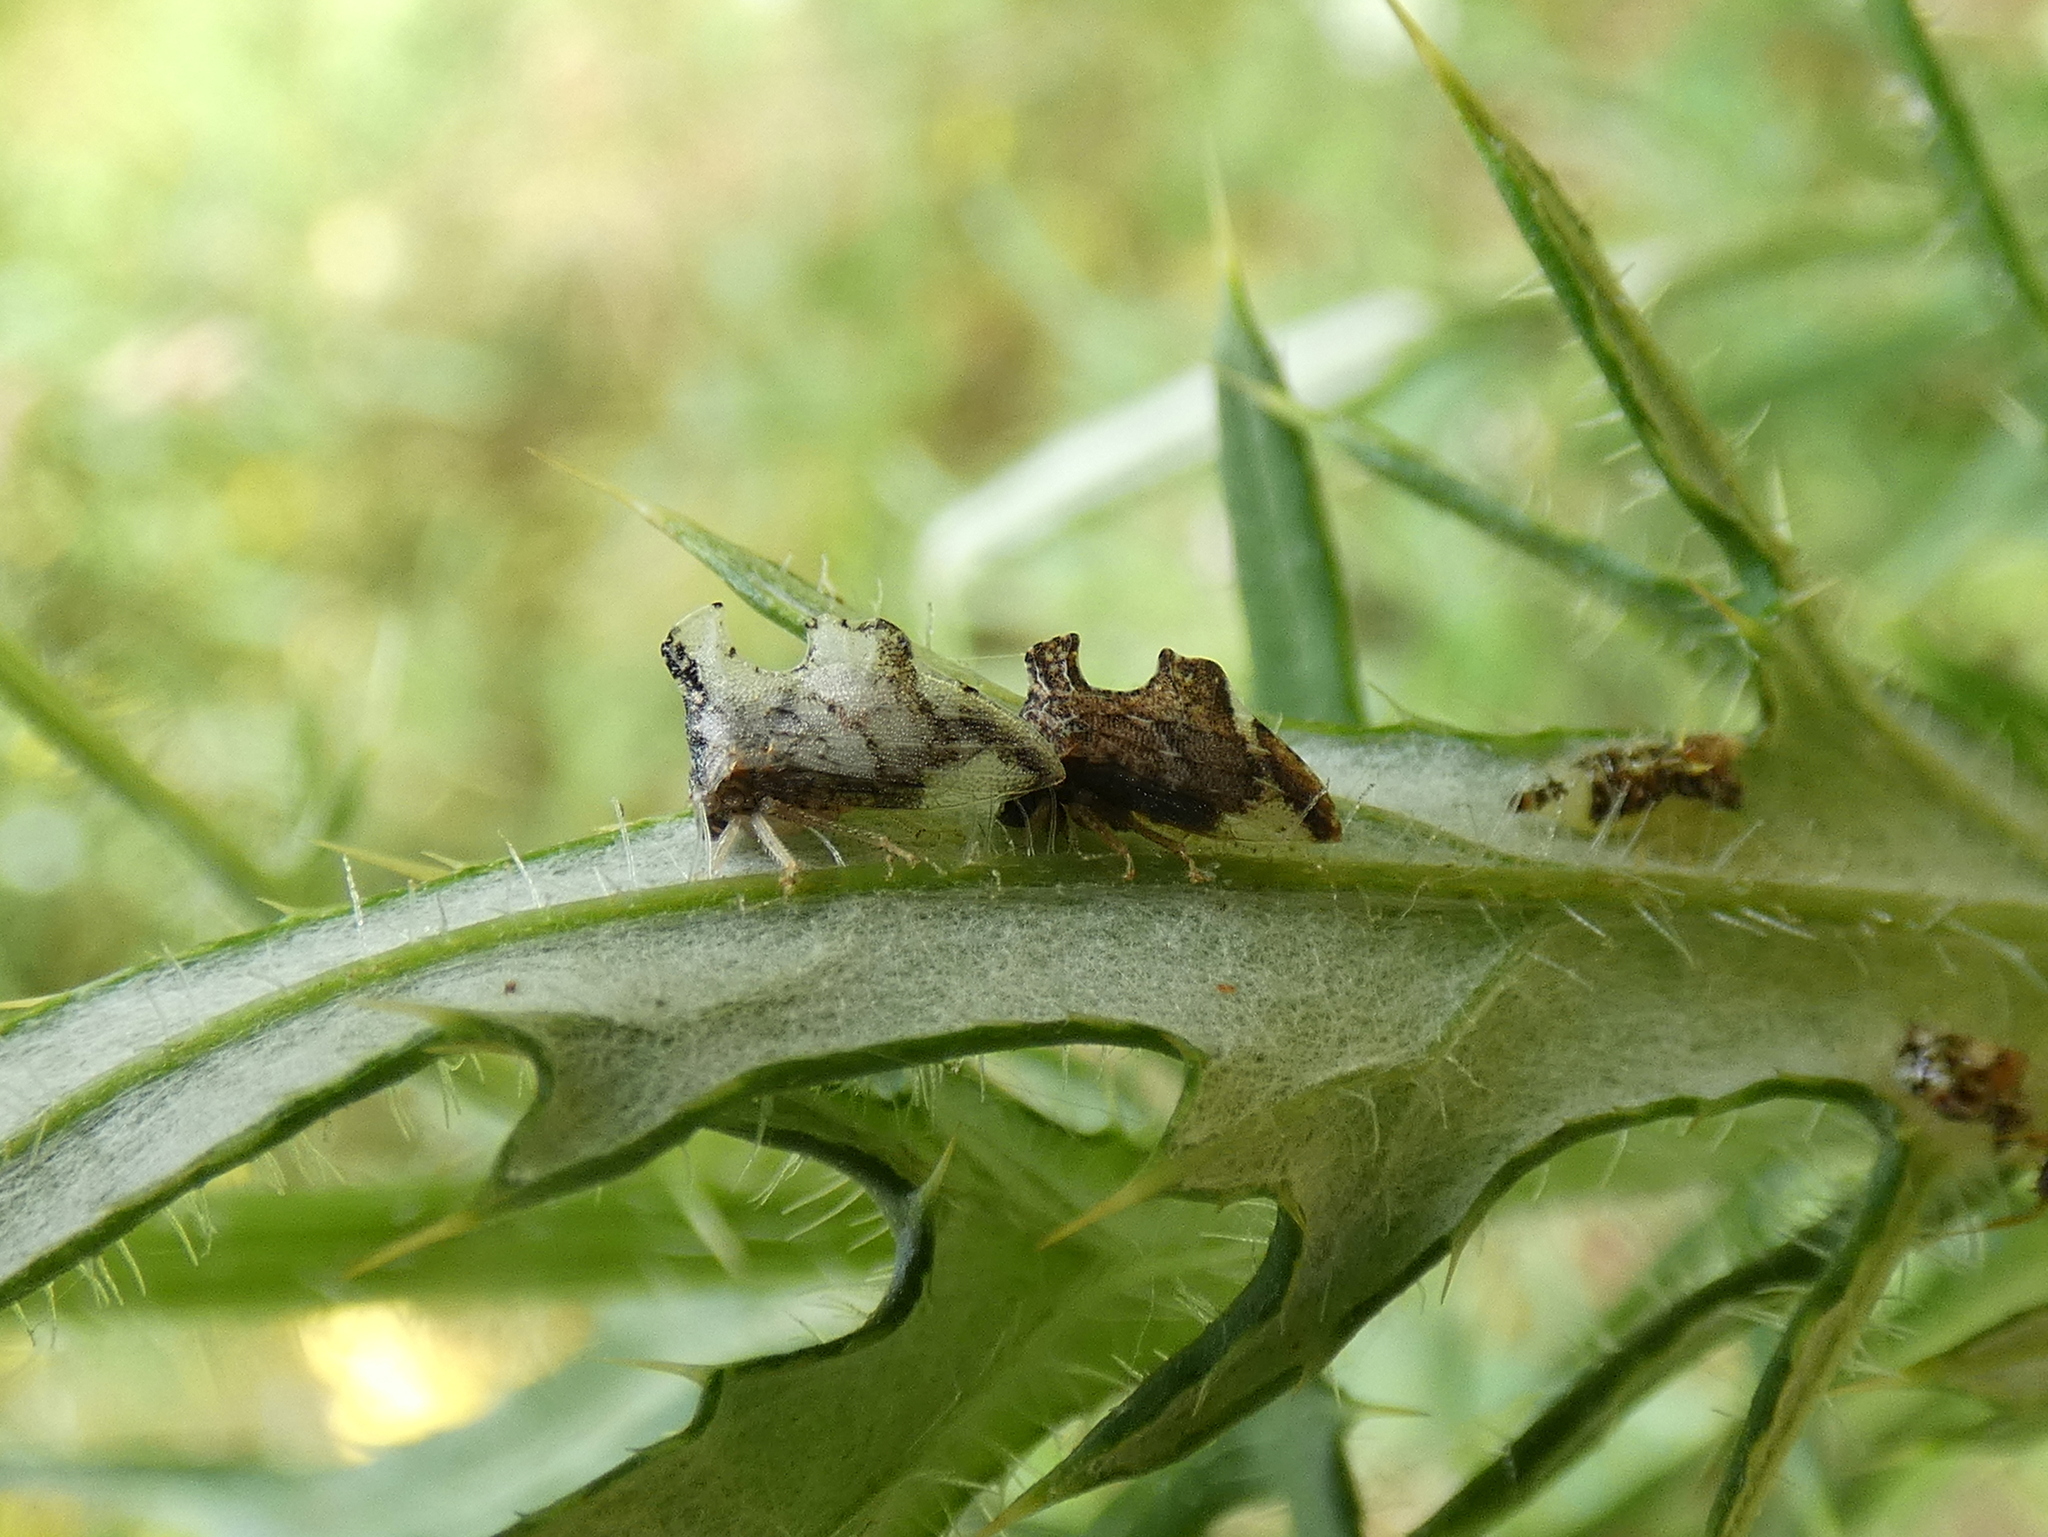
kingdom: Animalia
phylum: Arthropoda
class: Insecta
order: Hemiptera
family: Membracidae
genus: Entylia
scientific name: Entylia carinata
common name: Keeled treehopper
